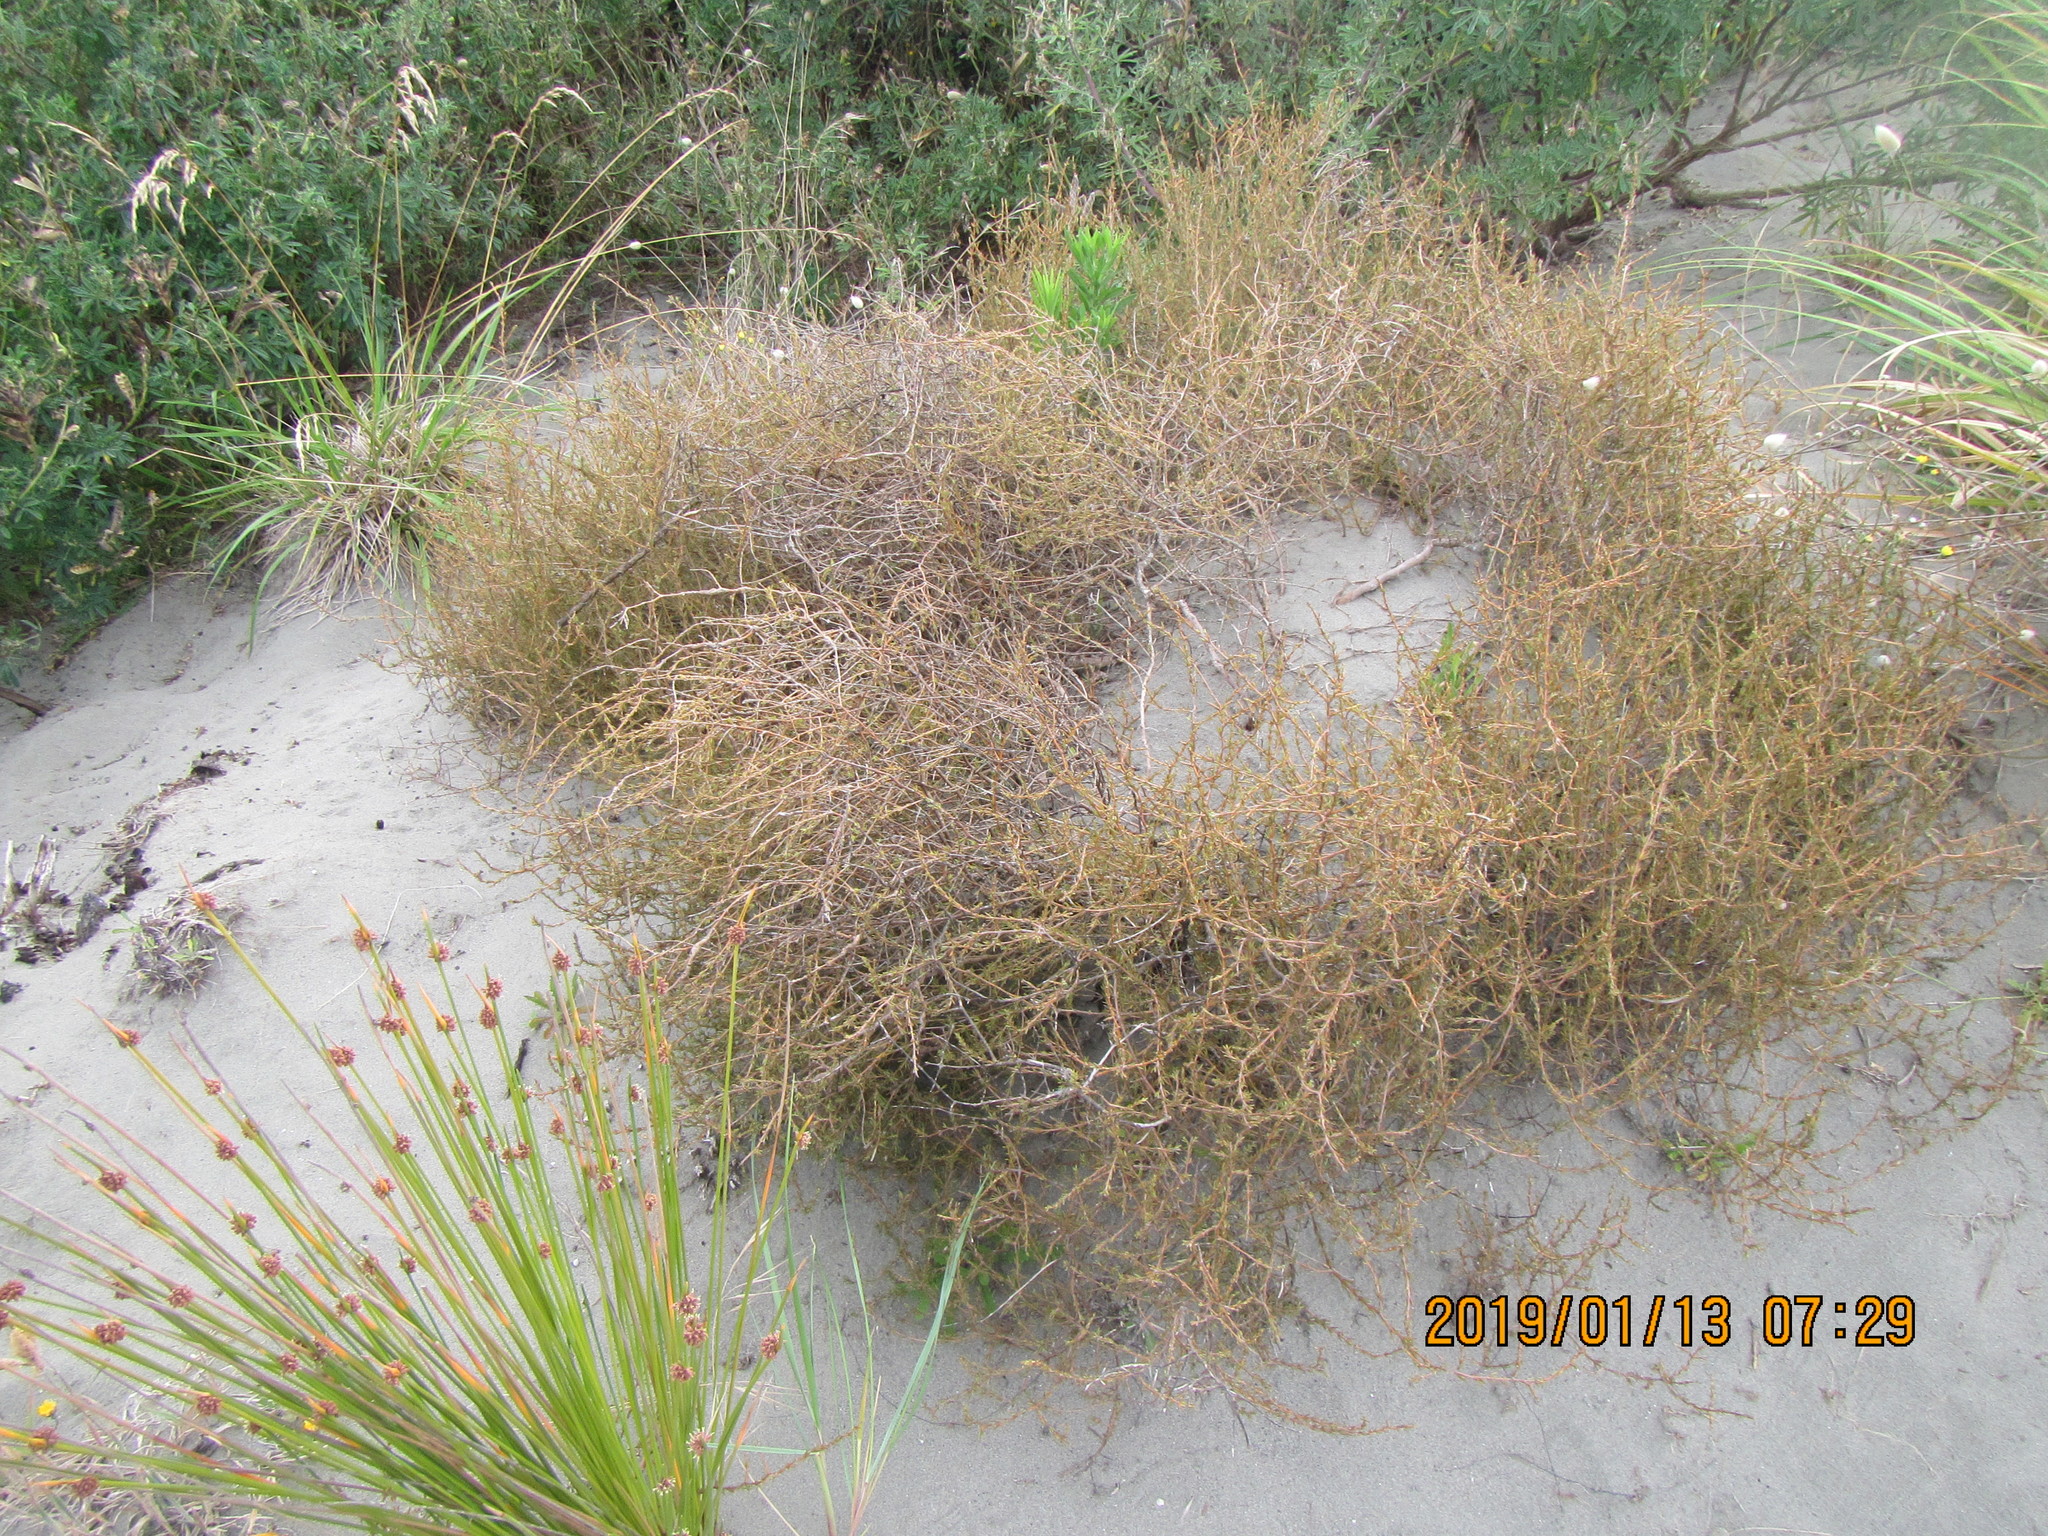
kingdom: Plantae
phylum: Tracheophyta
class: Magnoliopsida
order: Gentianales
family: Rubiaceae
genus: Coprosma
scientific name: Coprosma acerosa
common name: Sand coprosma
